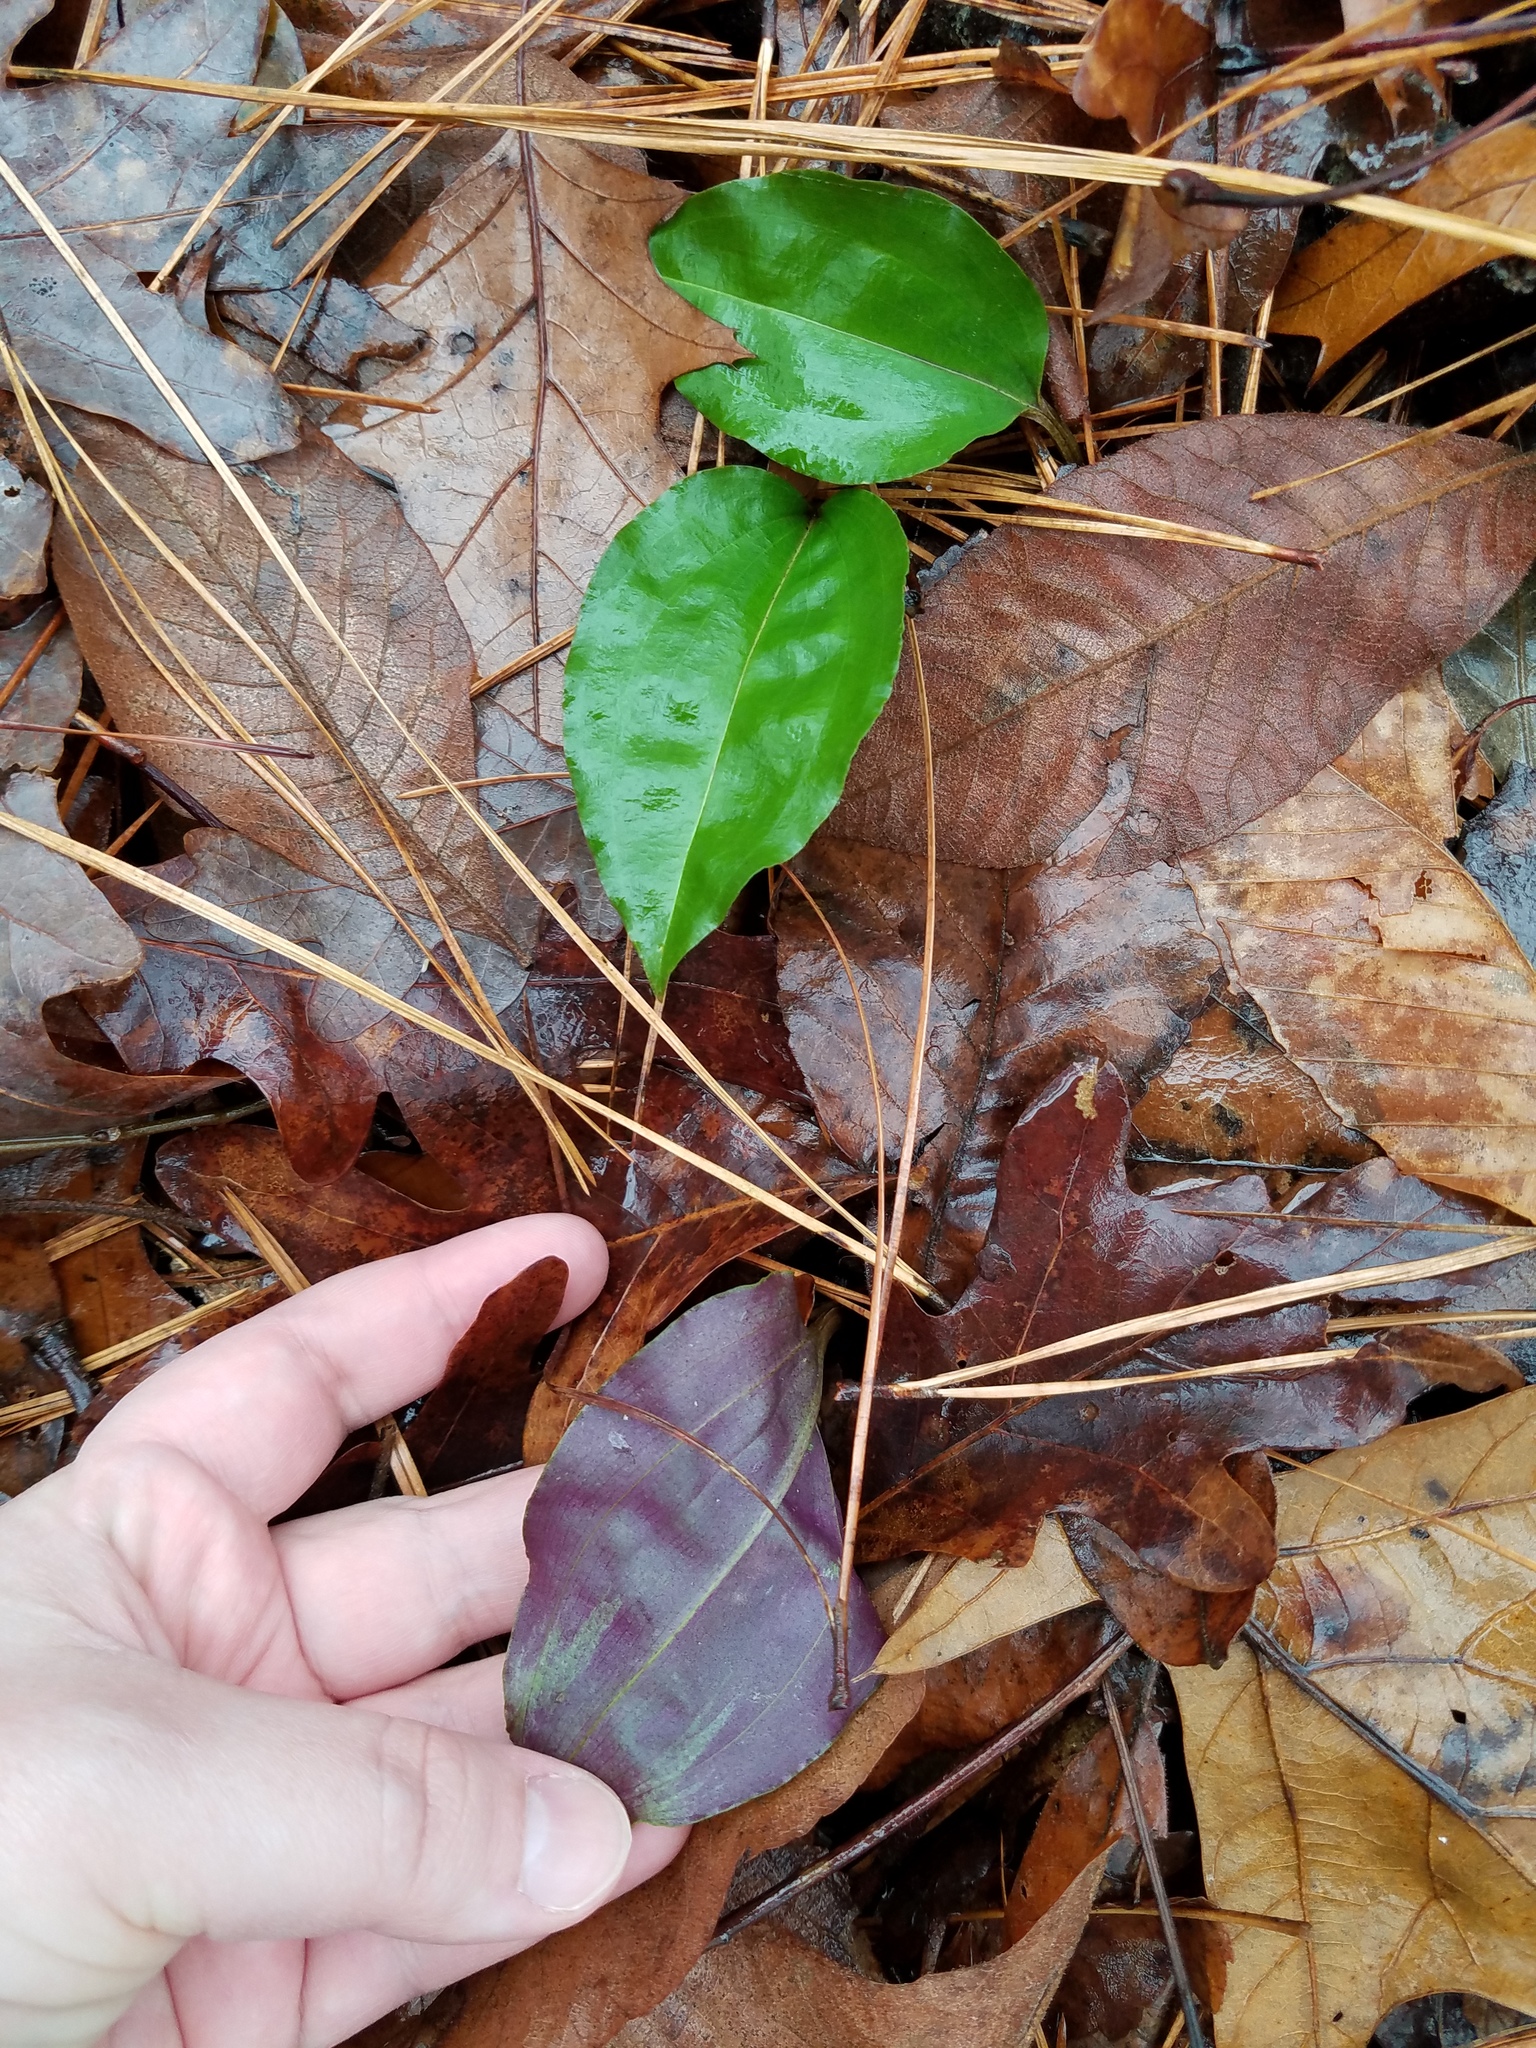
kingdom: Plantae
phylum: Tracheophyta
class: Liliopsida
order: Asparagales
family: Orchidaceae
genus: Tipularia
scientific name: Tipularia discolor
